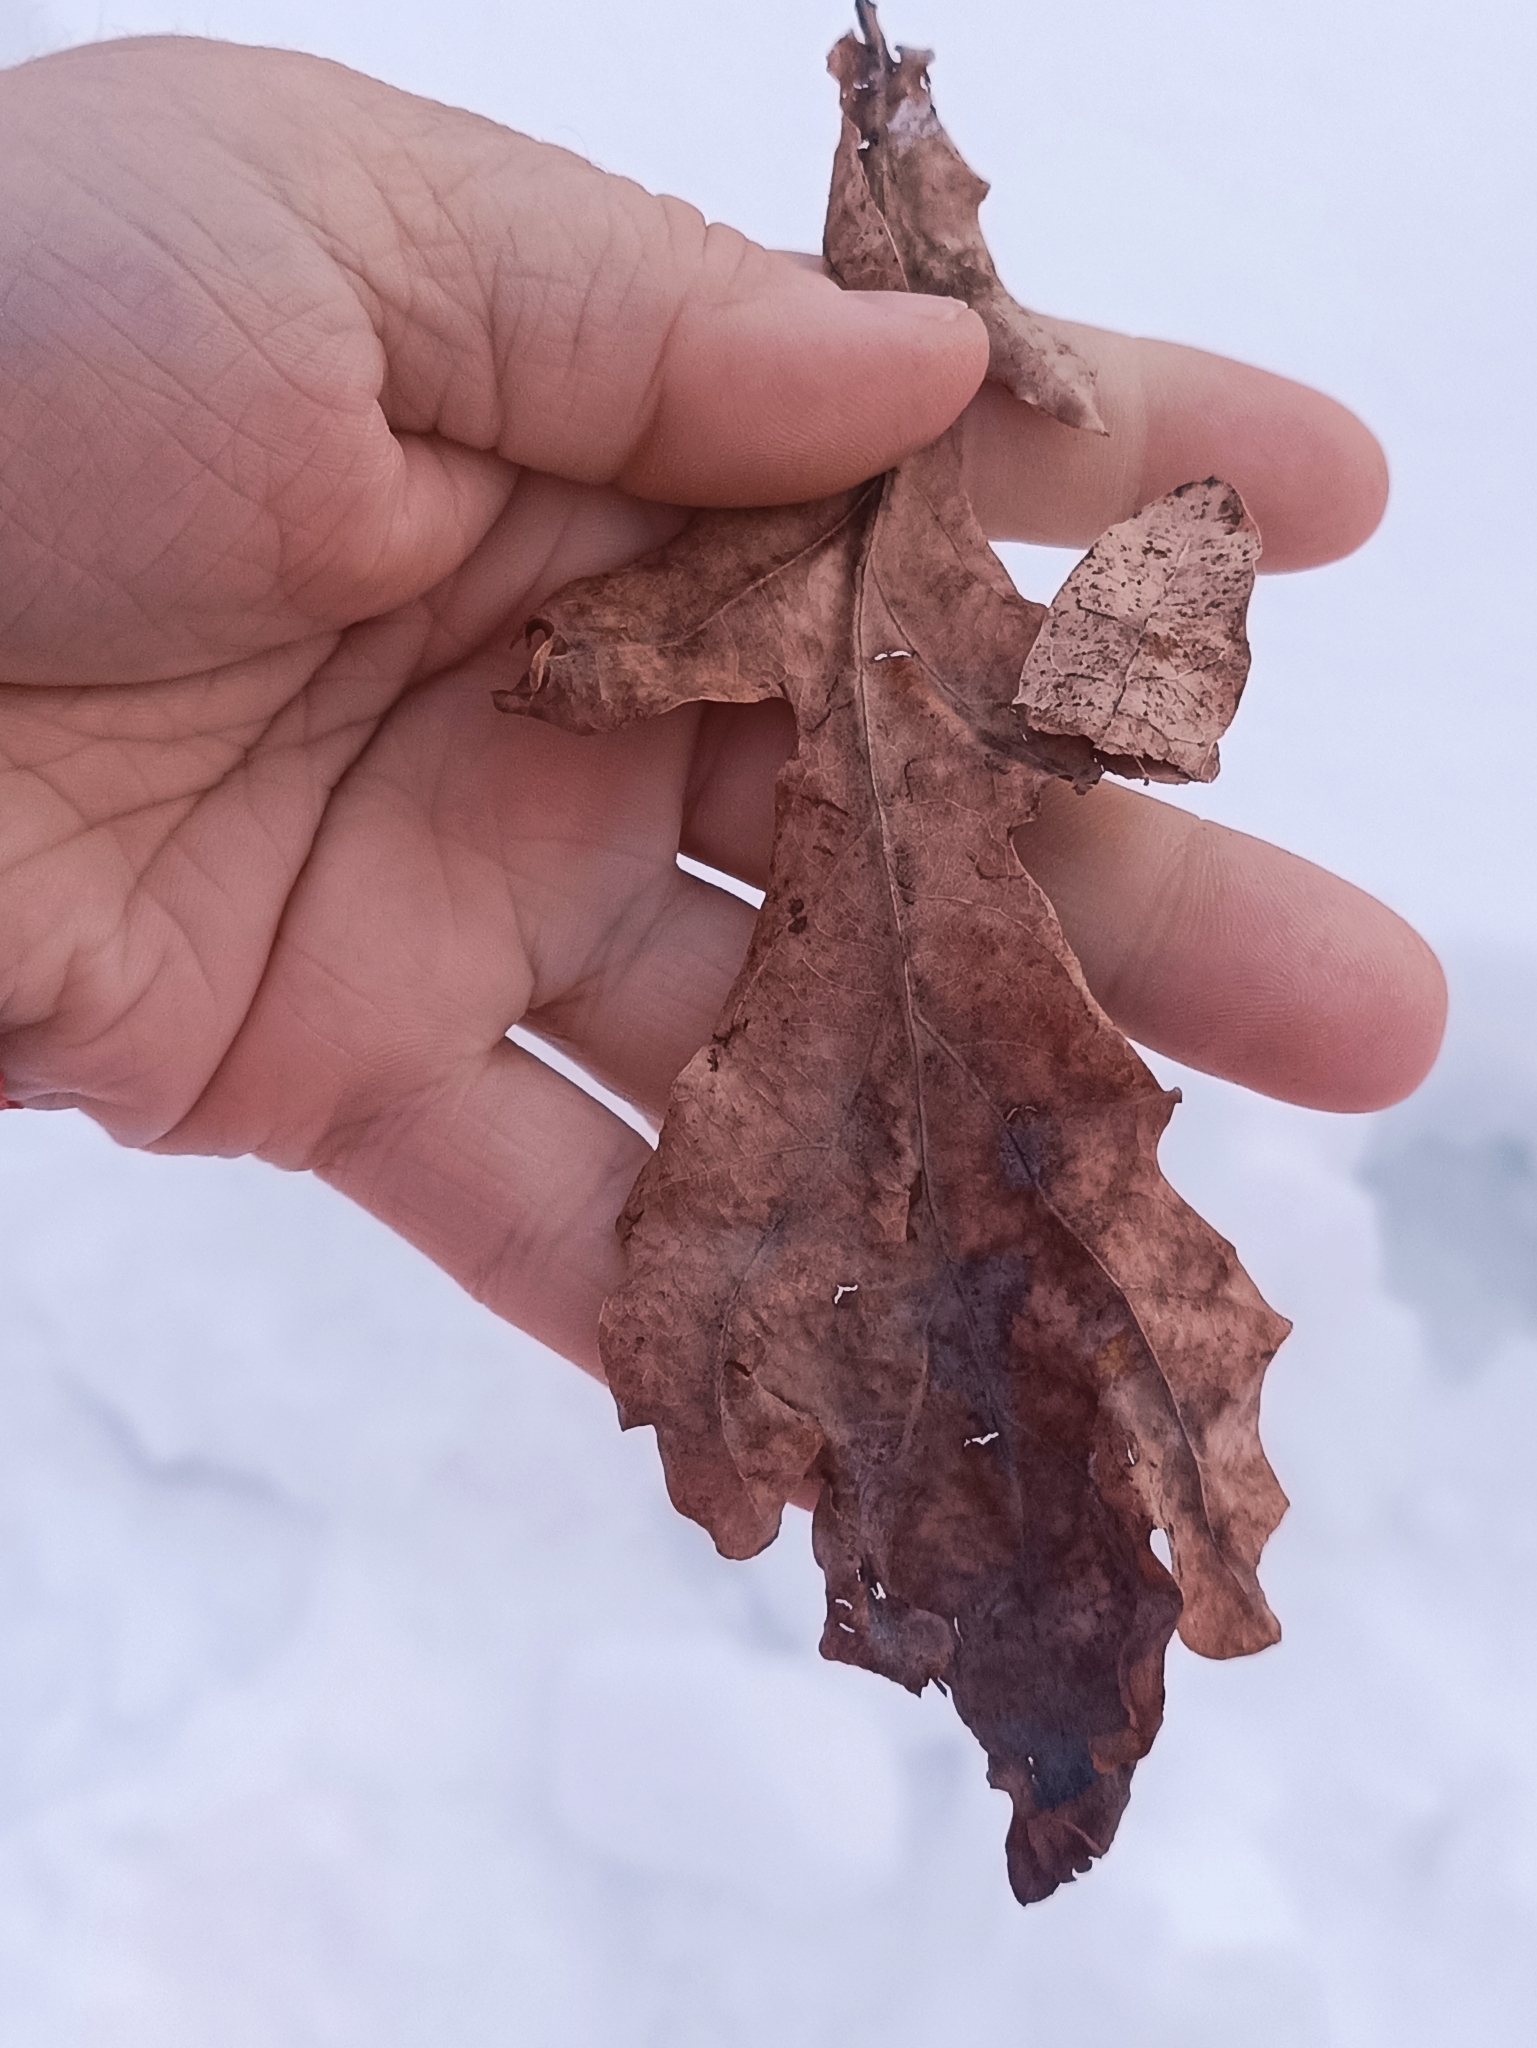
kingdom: Plantae
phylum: Tracheophyta
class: Magnoliopsida
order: Fagales
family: Fagaceae
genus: Quercus
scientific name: Quercus robur
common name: Pedunculate oak
